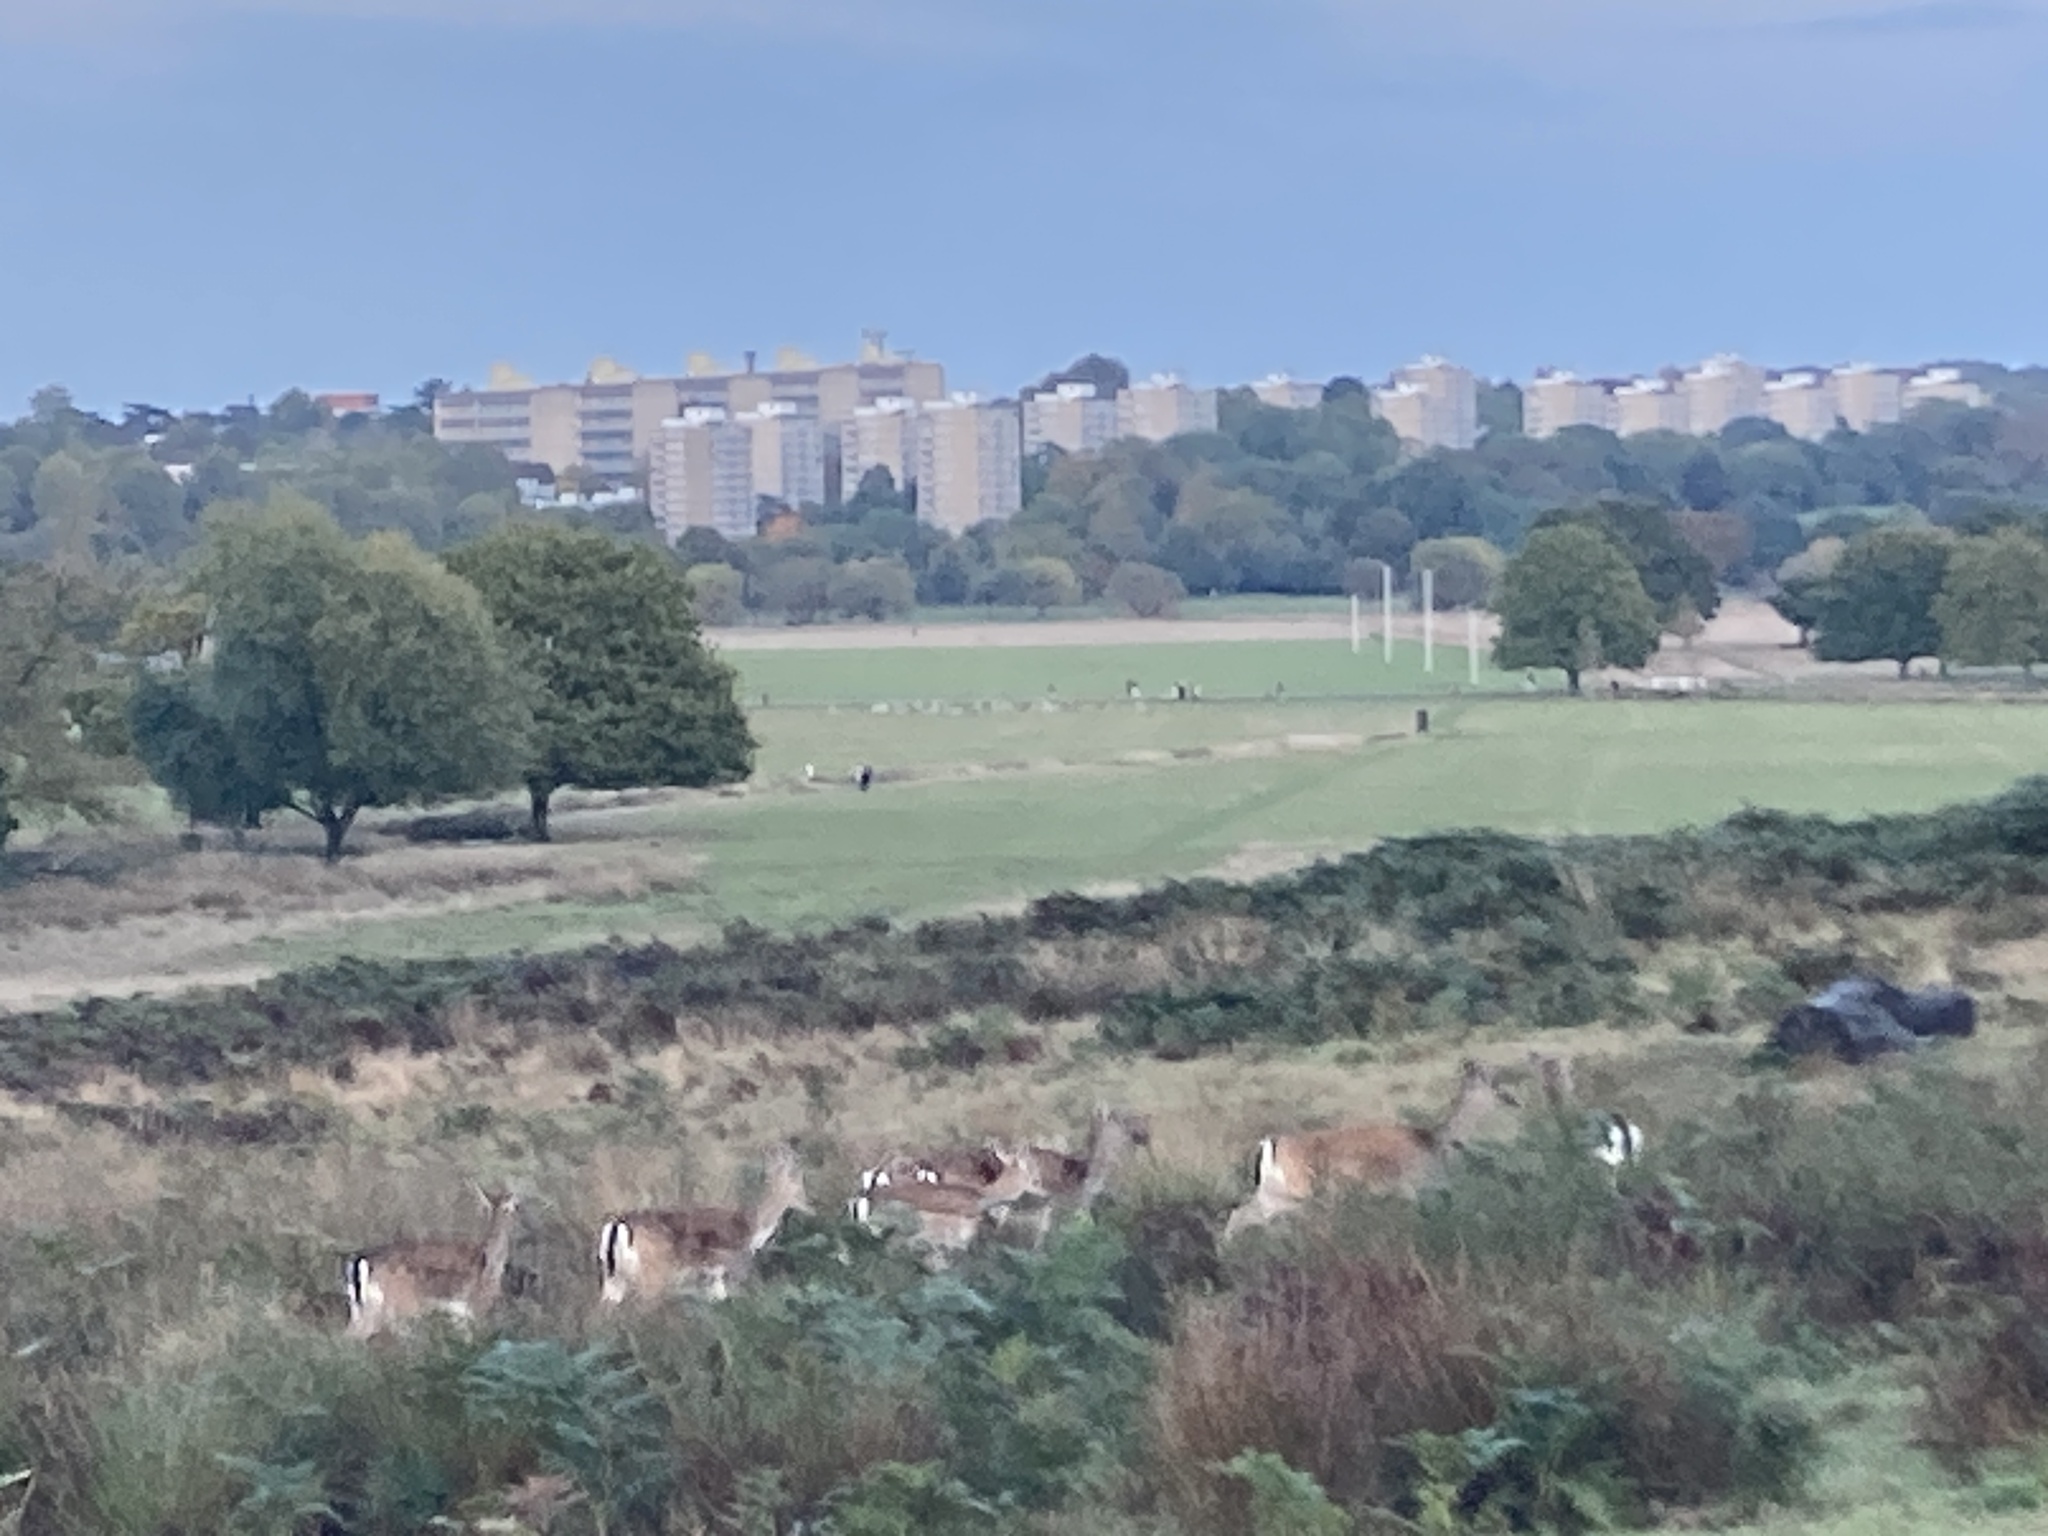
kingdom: Animalia
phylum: Chordata
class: Mammalia
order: Artiodactyla
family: Cervidae
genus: Dama
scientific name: Dama dama
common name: Fallow deer
